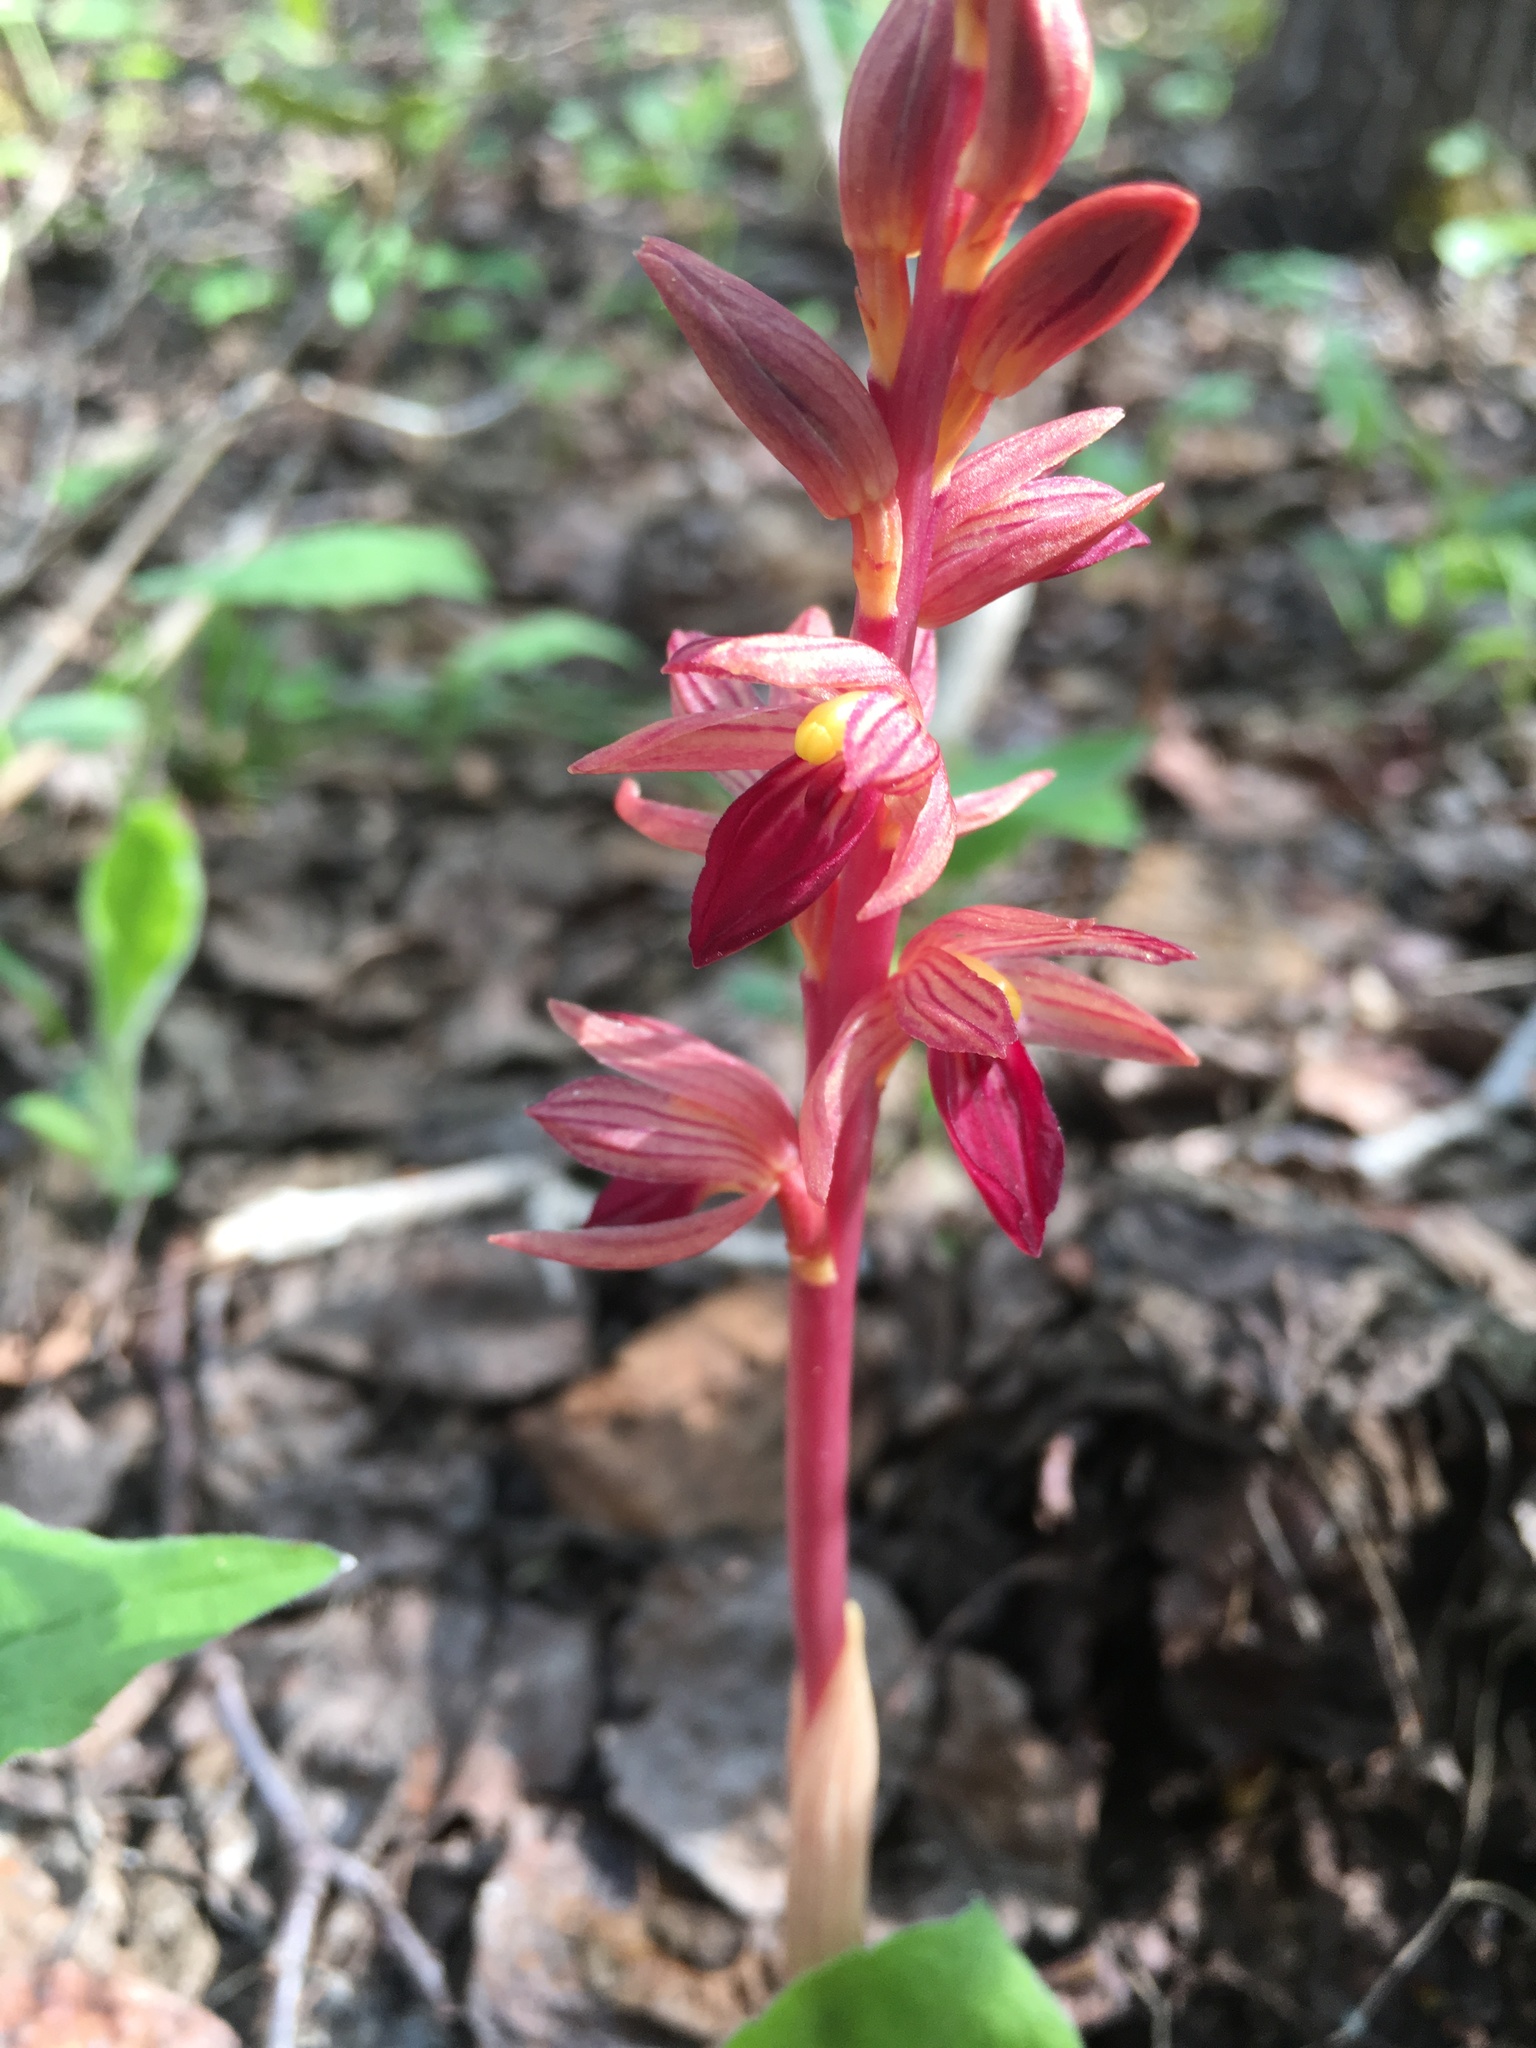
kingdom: Plantae
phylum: Tracheophyta
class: Liliopsida
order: Asparagales
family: Orchidaceae
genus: Corallorhiza
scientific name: Corallorhiza striata
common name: Hooded coralroot
